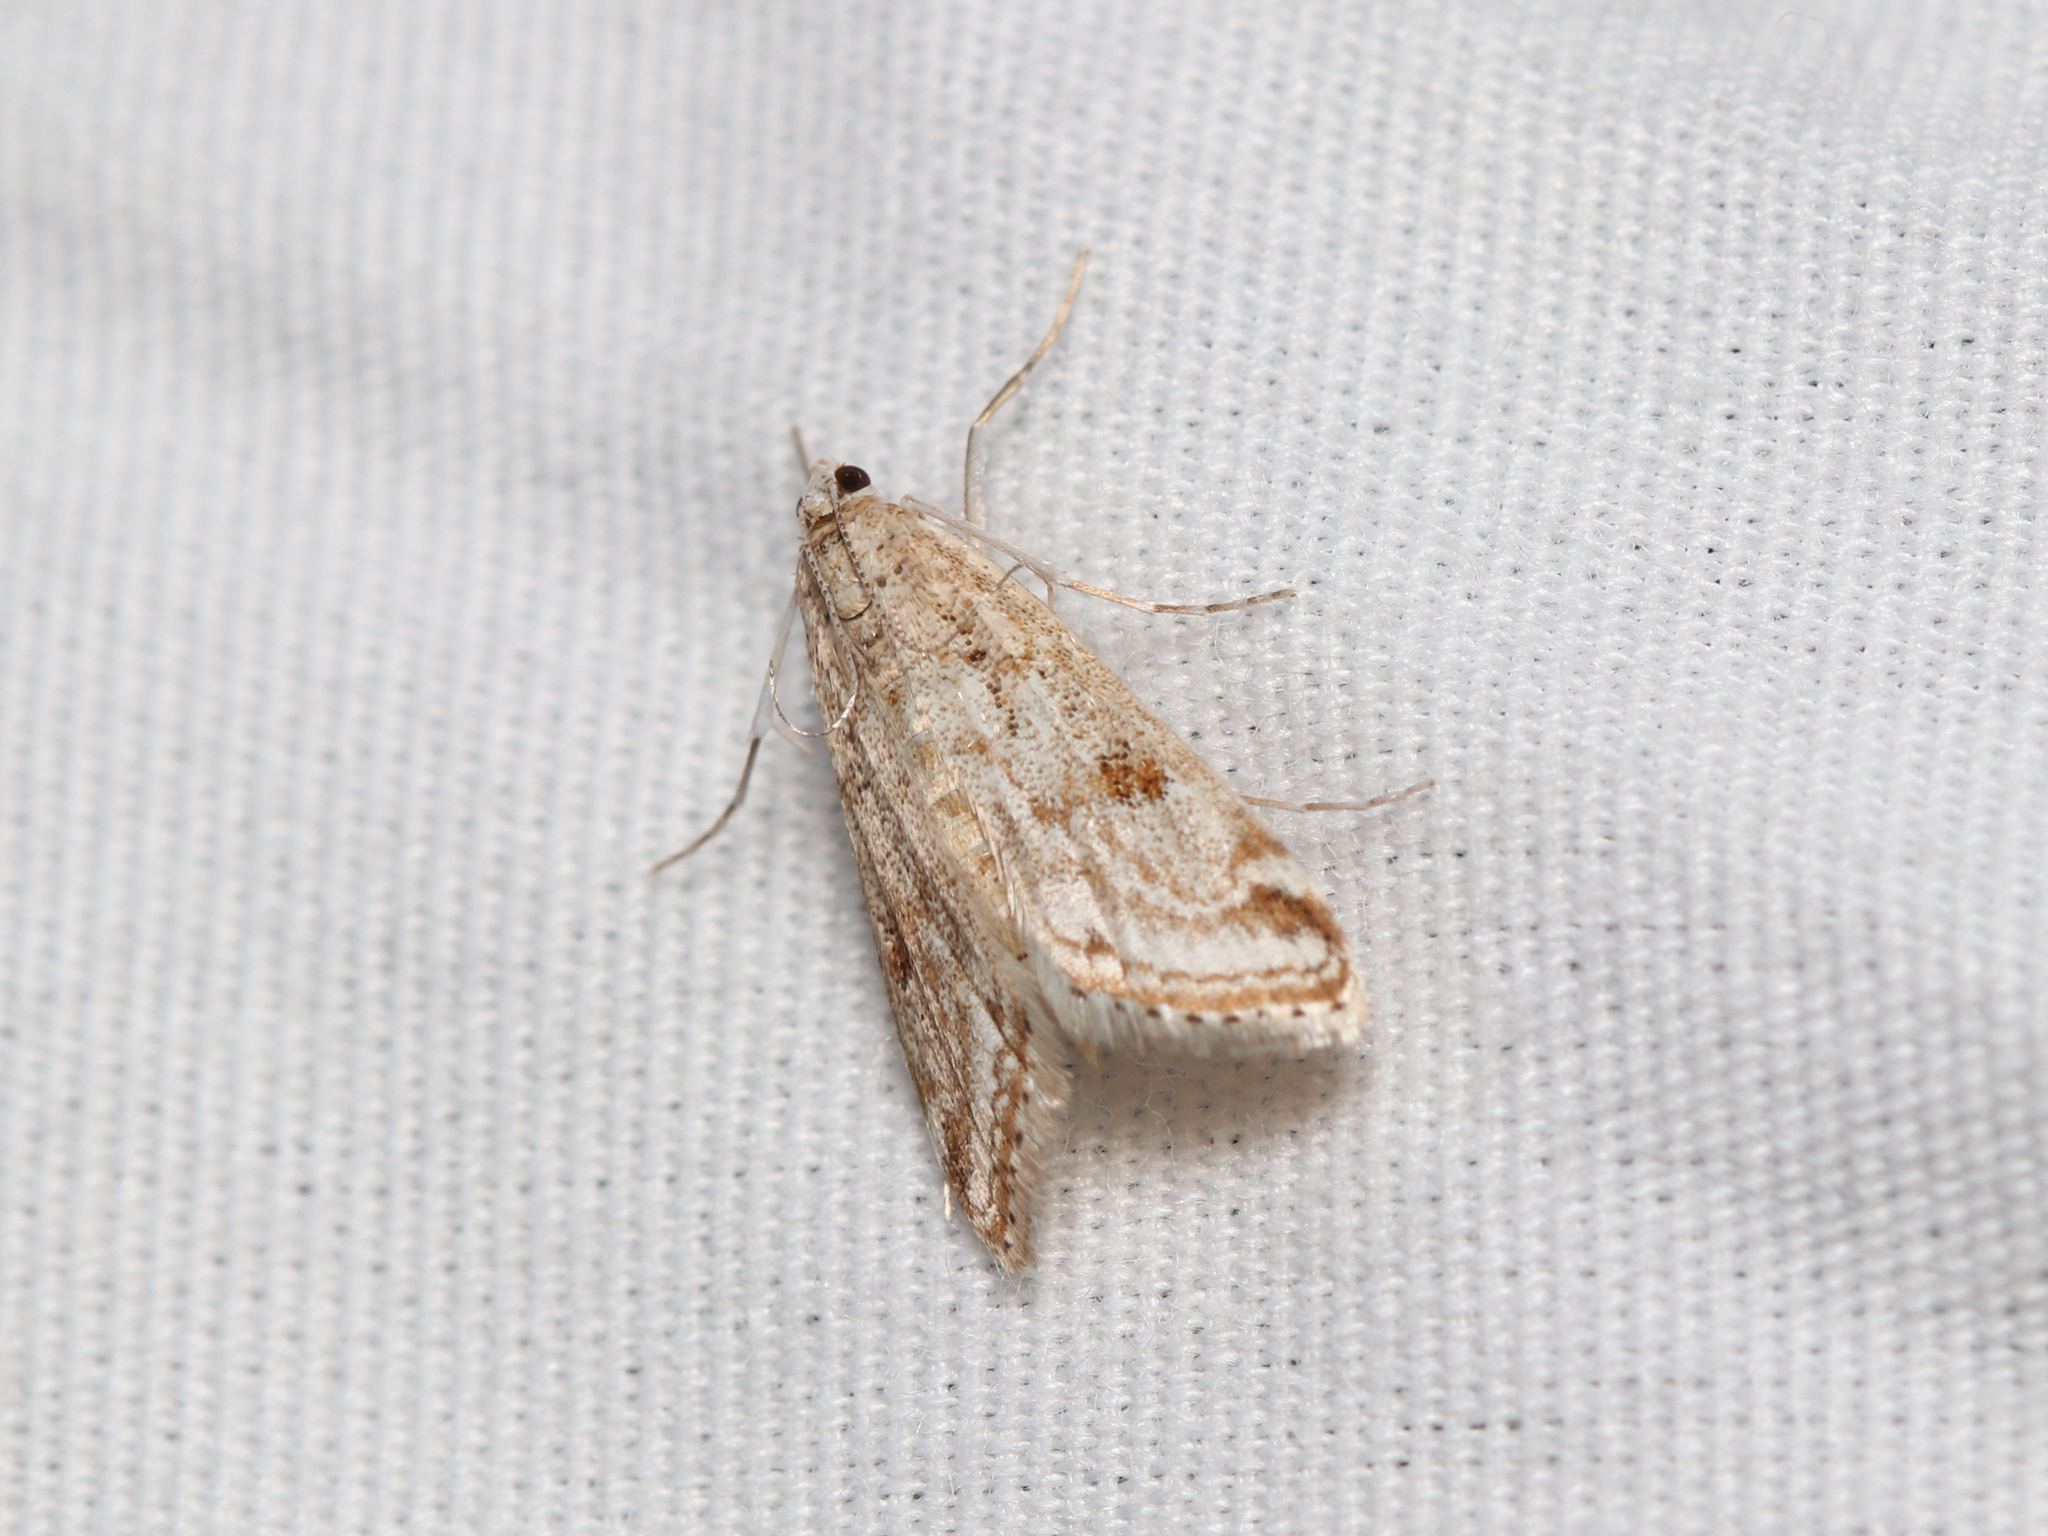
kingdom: Animalia
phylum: Arthropoda
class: Insecta
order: Lepidoptera
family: Crambidae
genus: Parapoynx
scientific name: Parapoynx allionealis
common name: Bladderwort casemaker
